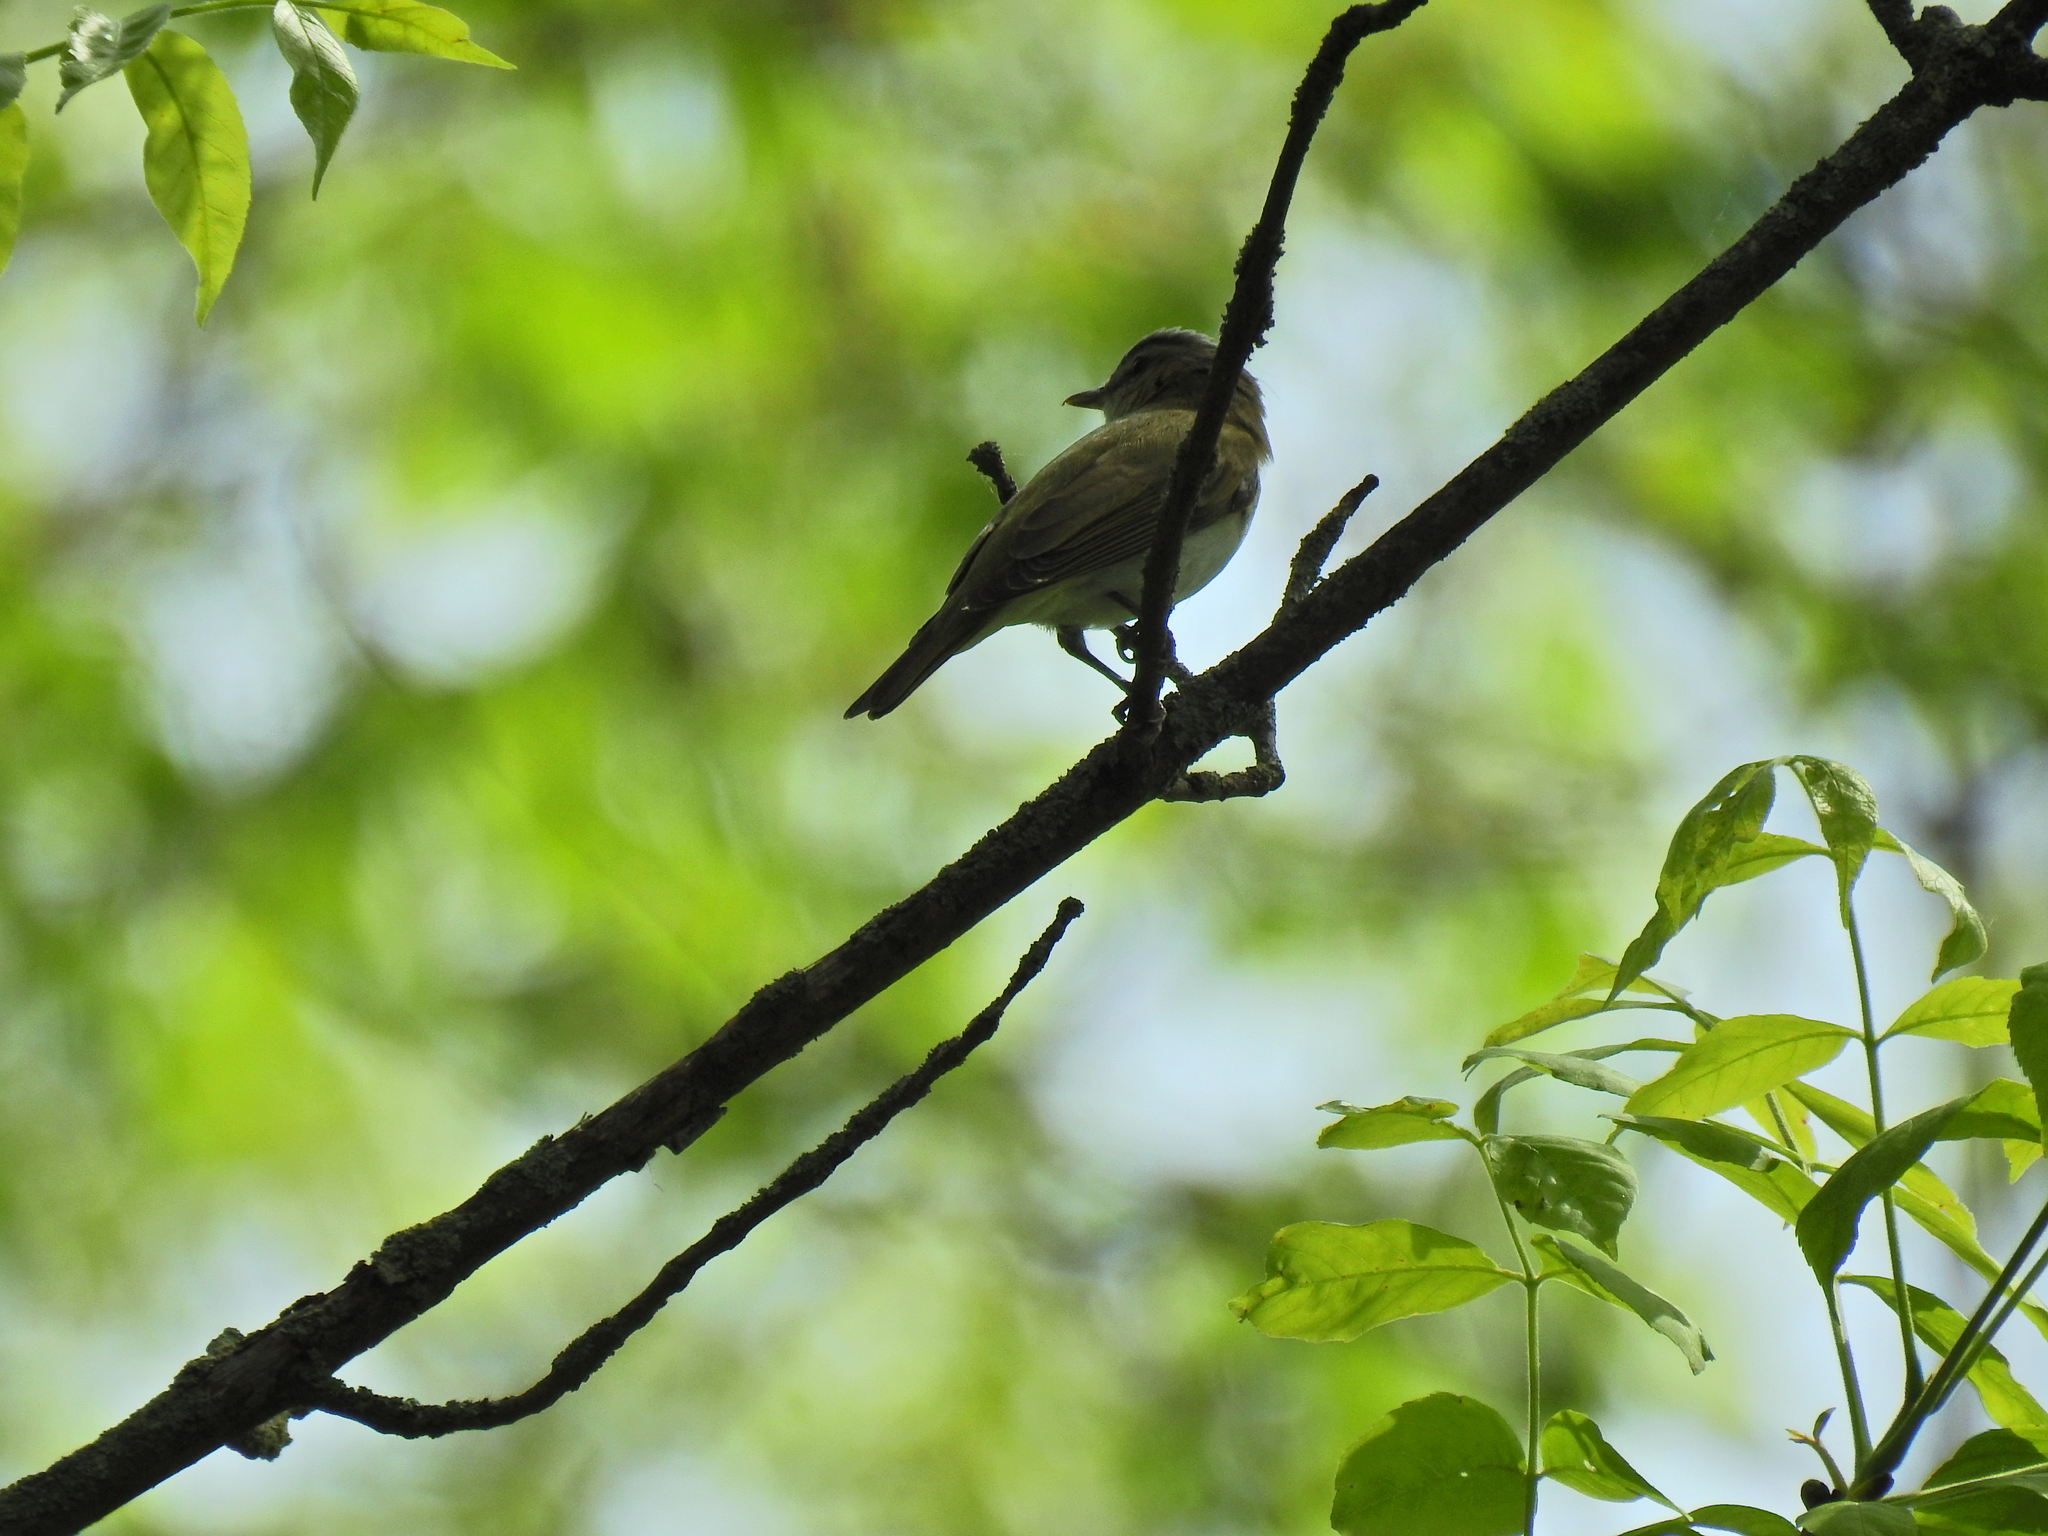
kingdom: Animalia
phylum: Chordata
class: Aves
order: Passeriformes
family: Vireonidae
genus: Vireo
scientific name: Vireo olivaceus
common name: Red-eyed vireo
